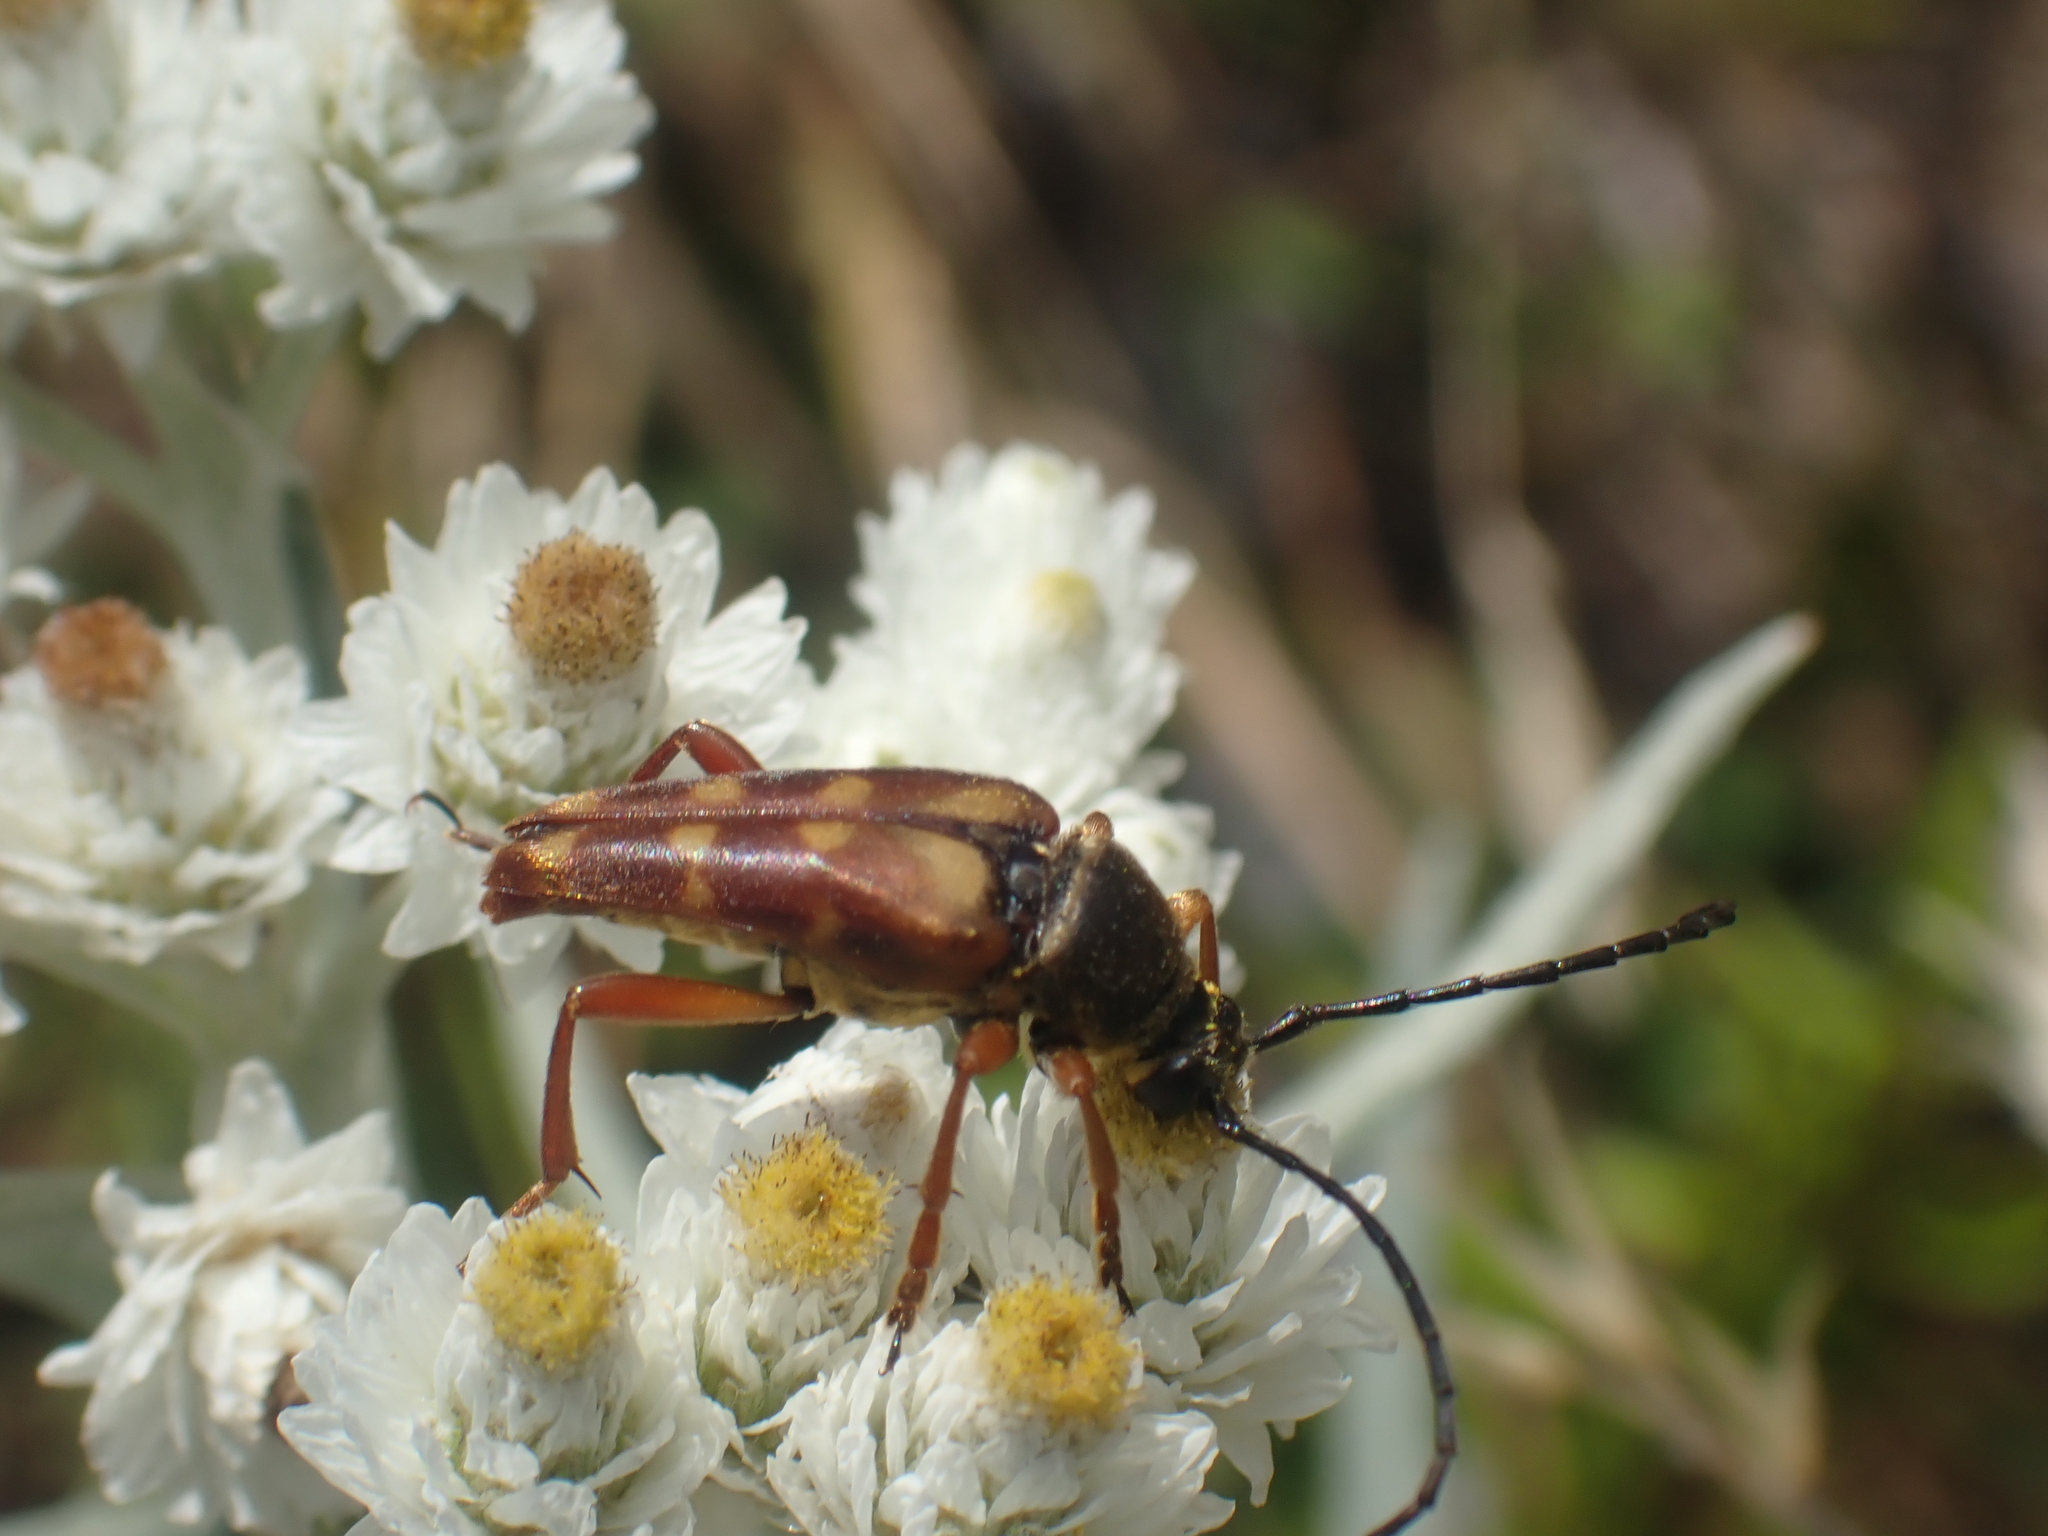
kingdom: Animalia
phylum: Arthropoda
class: Insecta
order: Coleoptera
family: Cerambycidae
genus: Typocerus
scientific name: Typocerus velutinus
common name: Banded longhorn beetle
